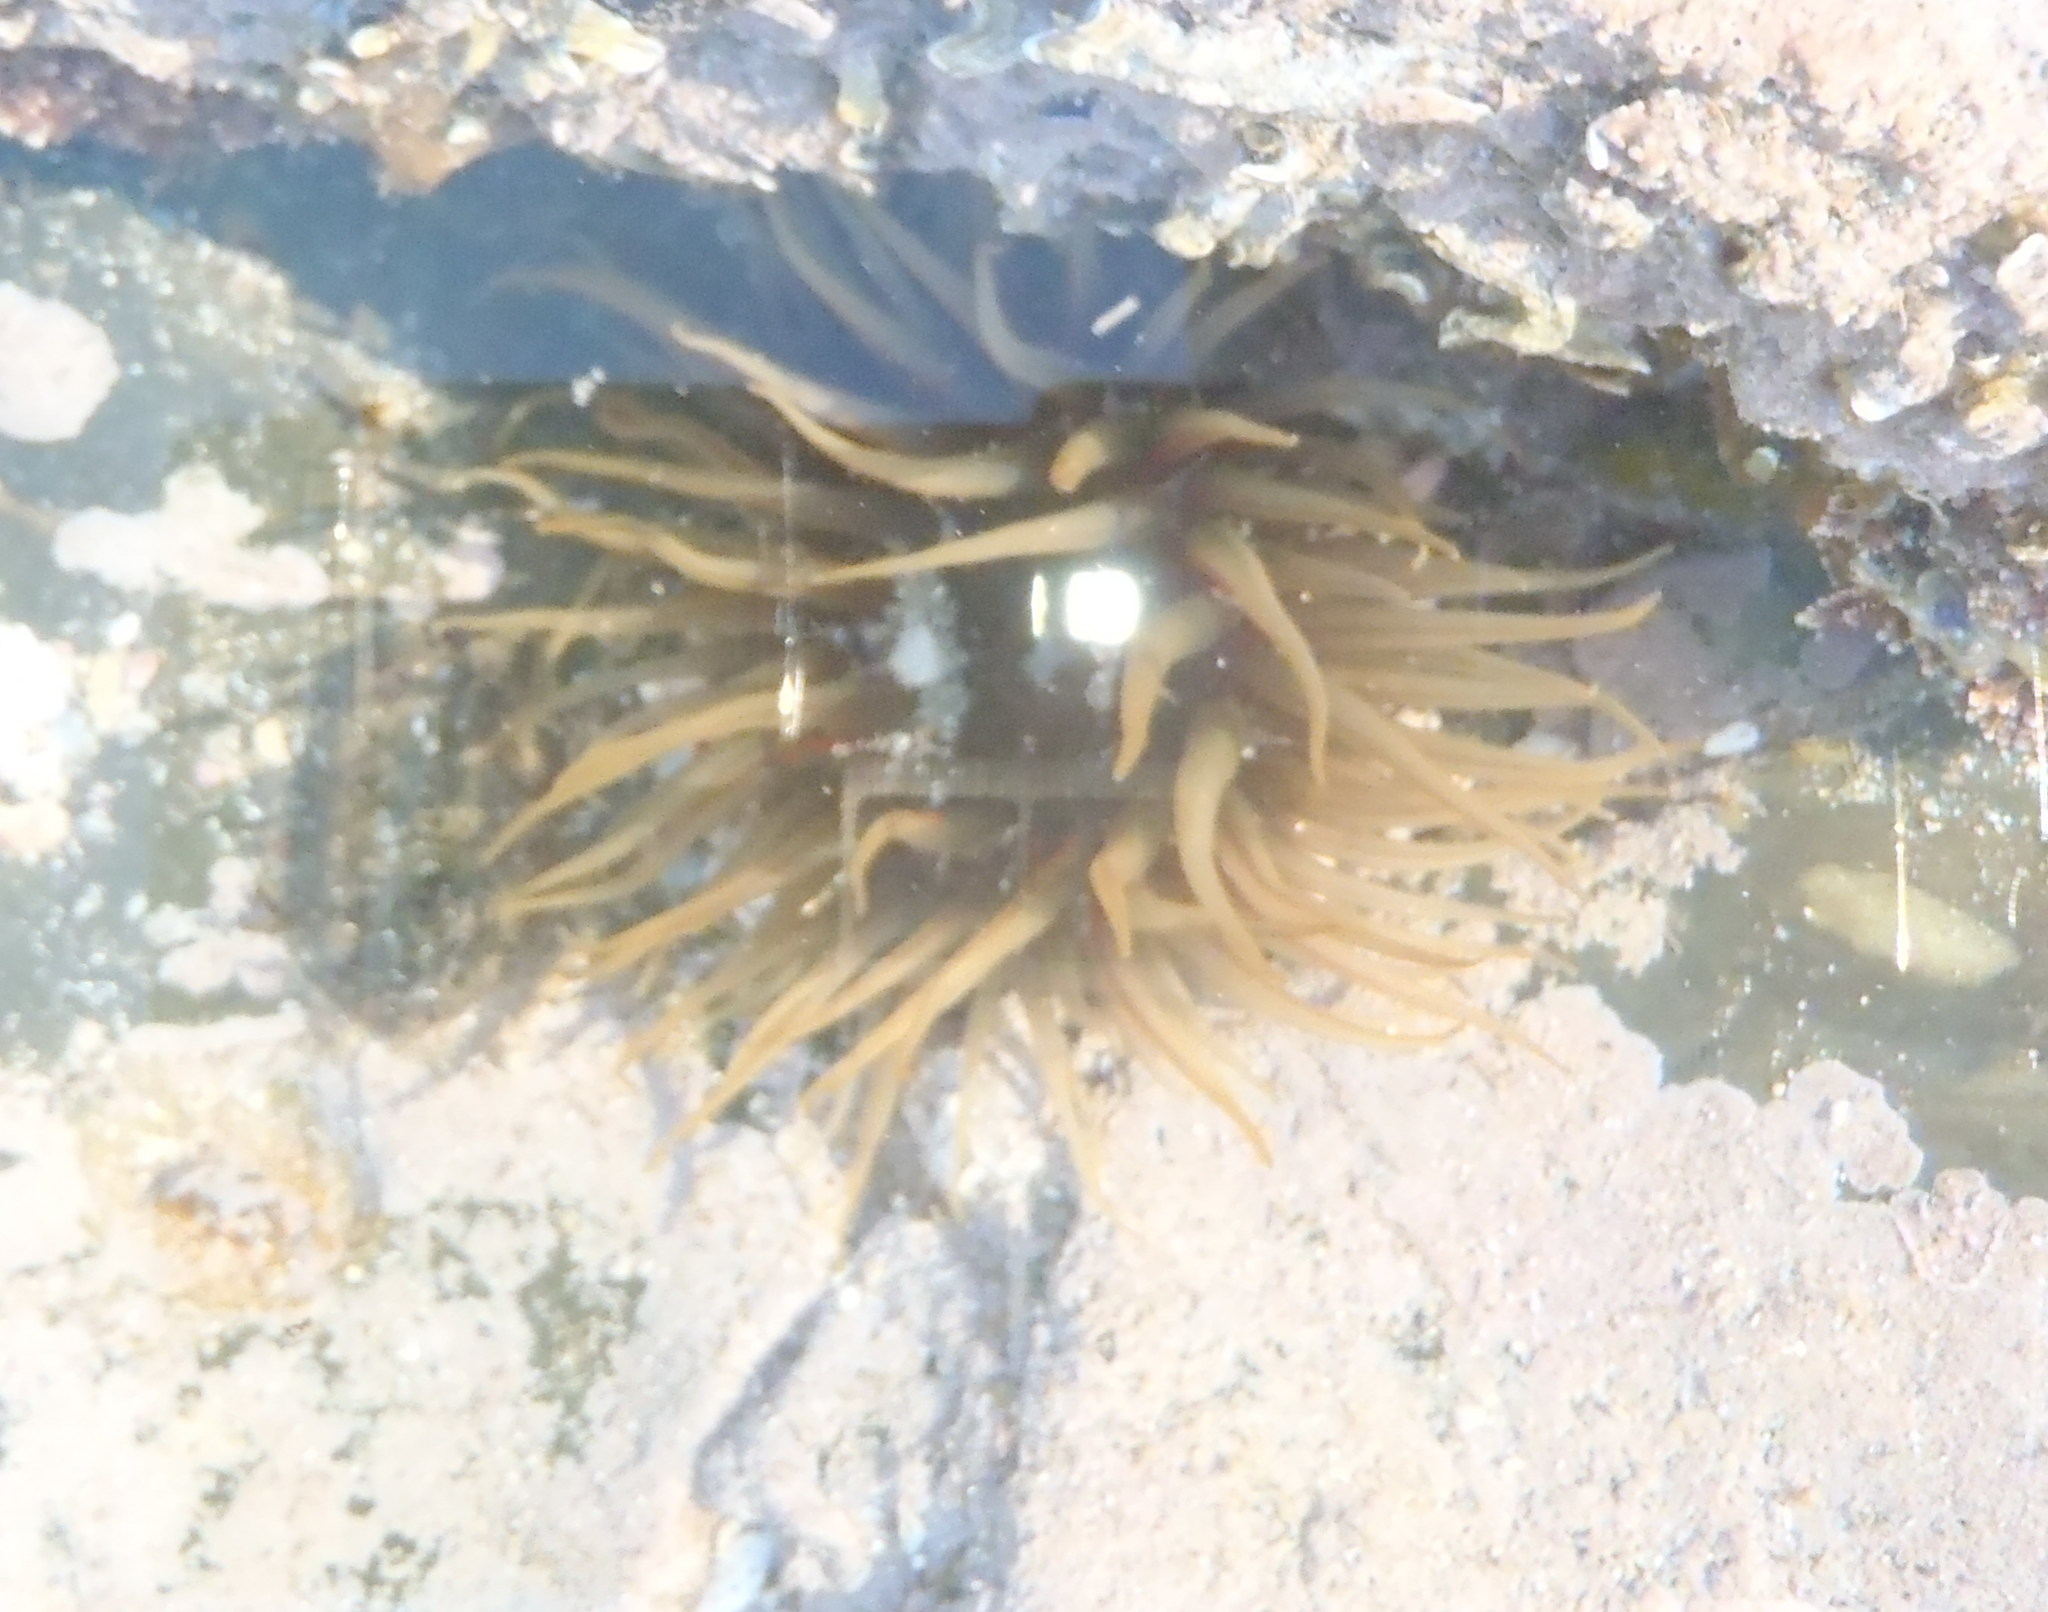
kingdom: Animalia
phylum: Cnidaria
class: Anthozoa
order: Actiniaria
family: Actiniidae
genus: Anthopleura
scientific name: Anthopleura michaelseni
